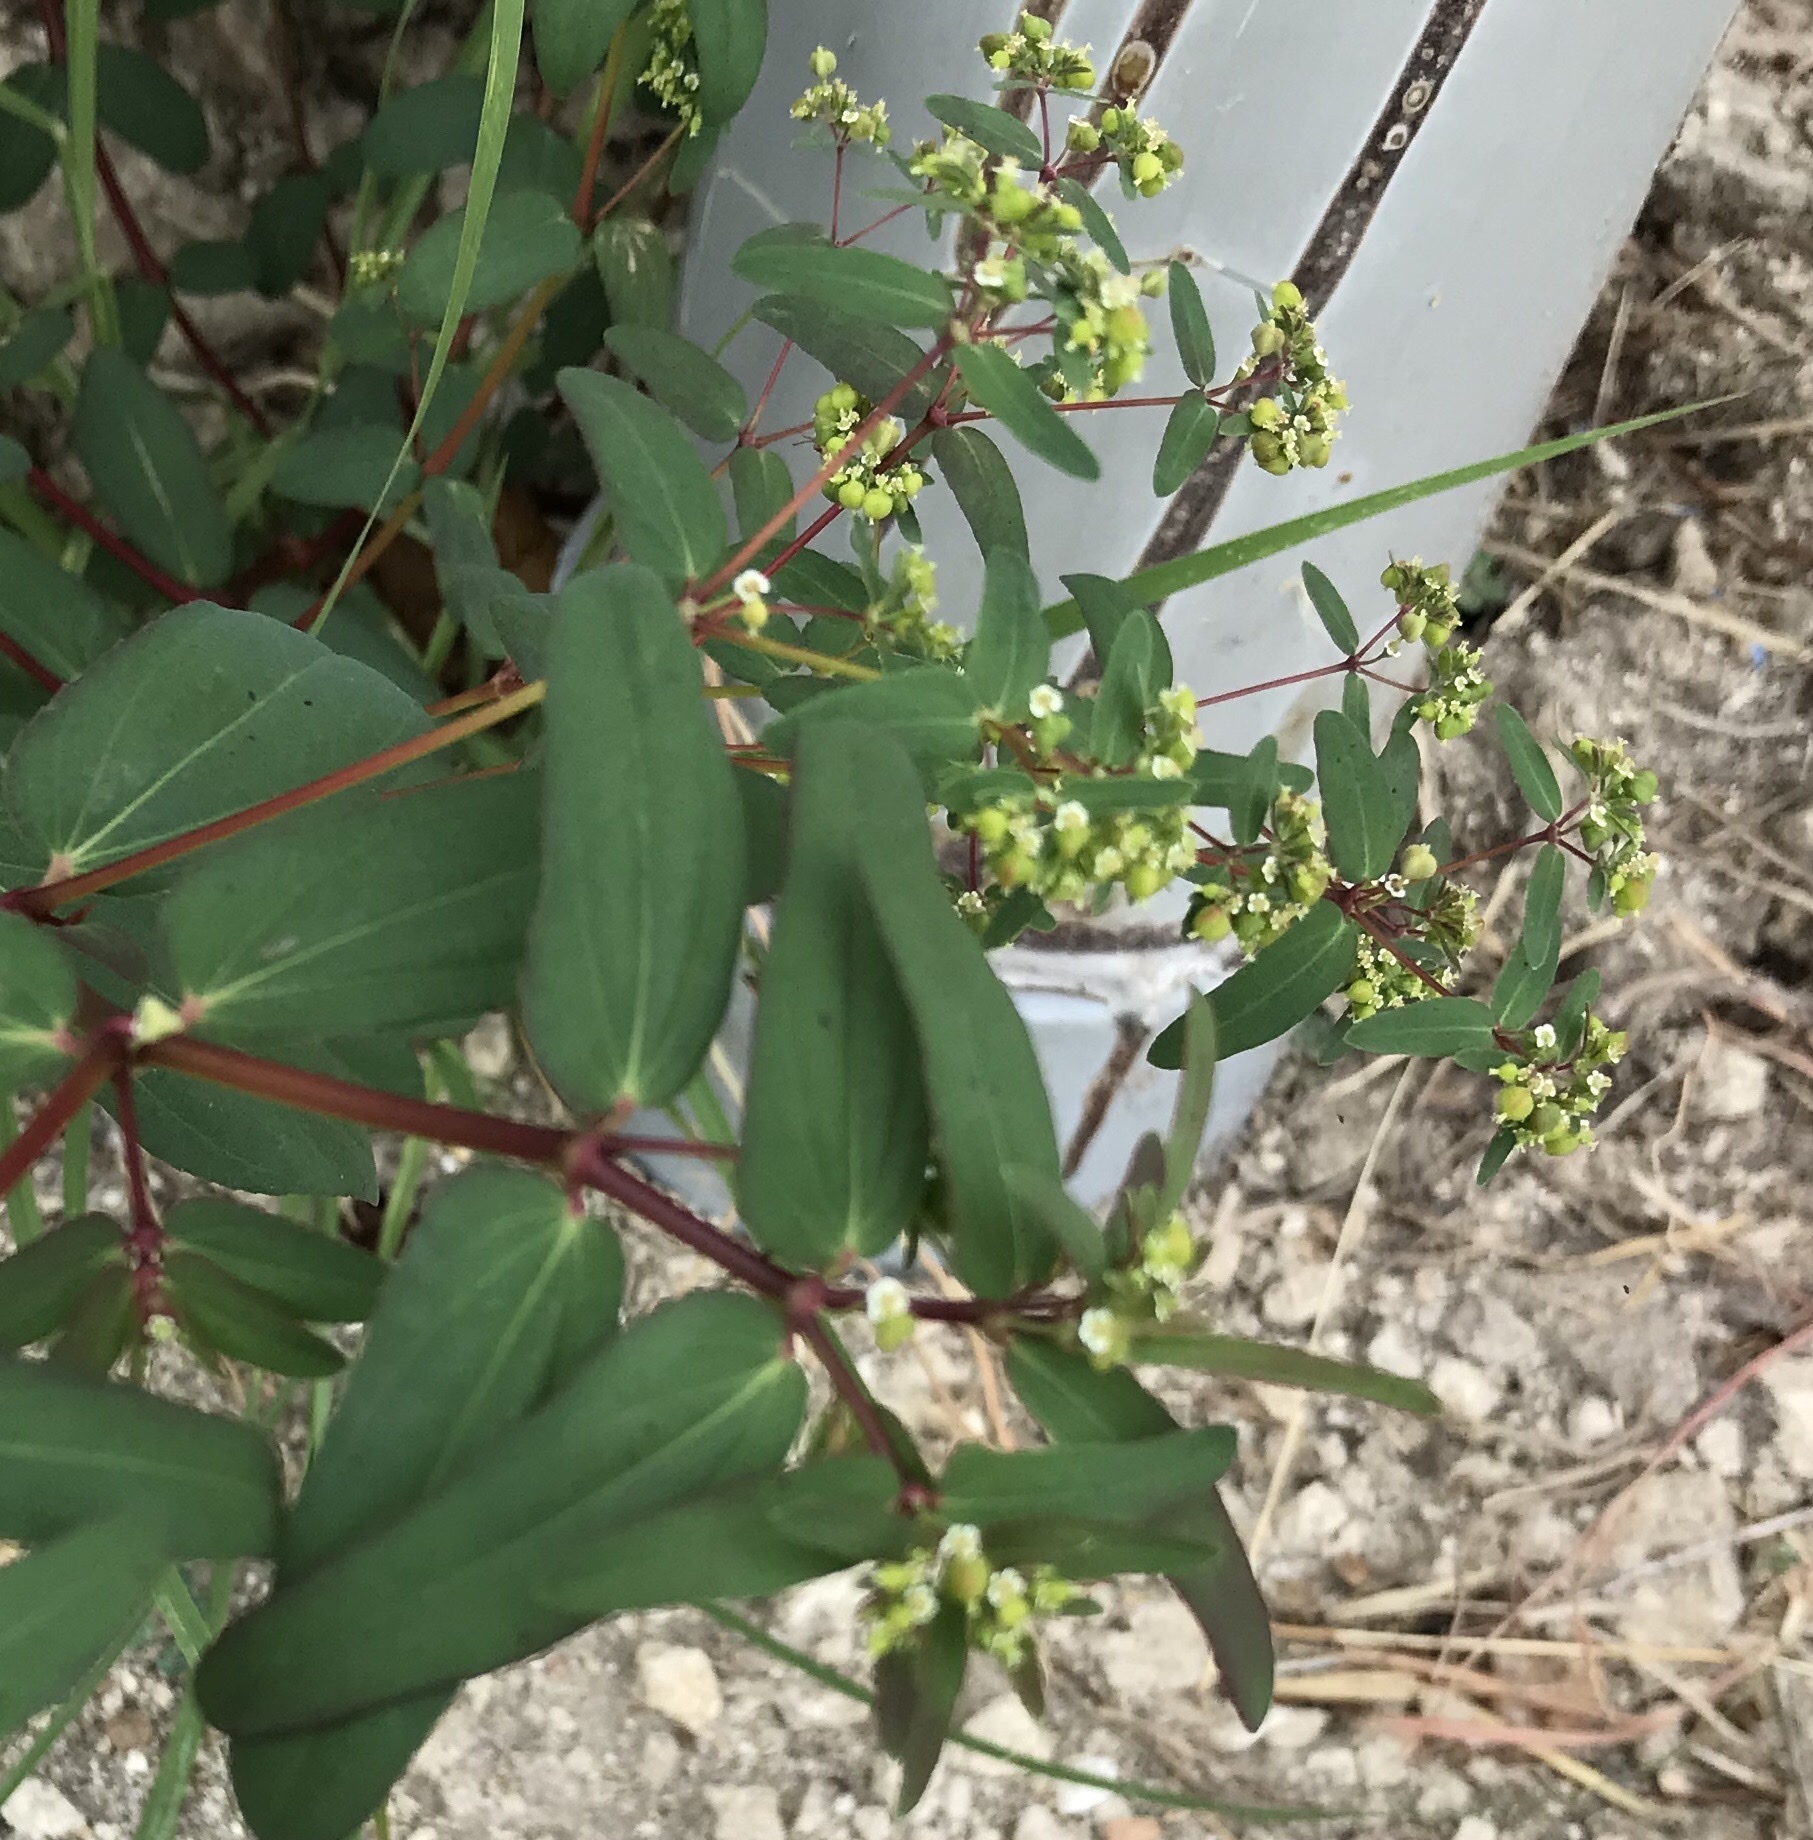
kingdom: Plantae
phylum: Tracheophyta
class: Magnoliopsida
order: Malpighiales
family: Euphorbiaceae
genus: Euphorbia
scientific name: Euphorbia hyssopifolia
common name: Hyssopleaf sandmat
